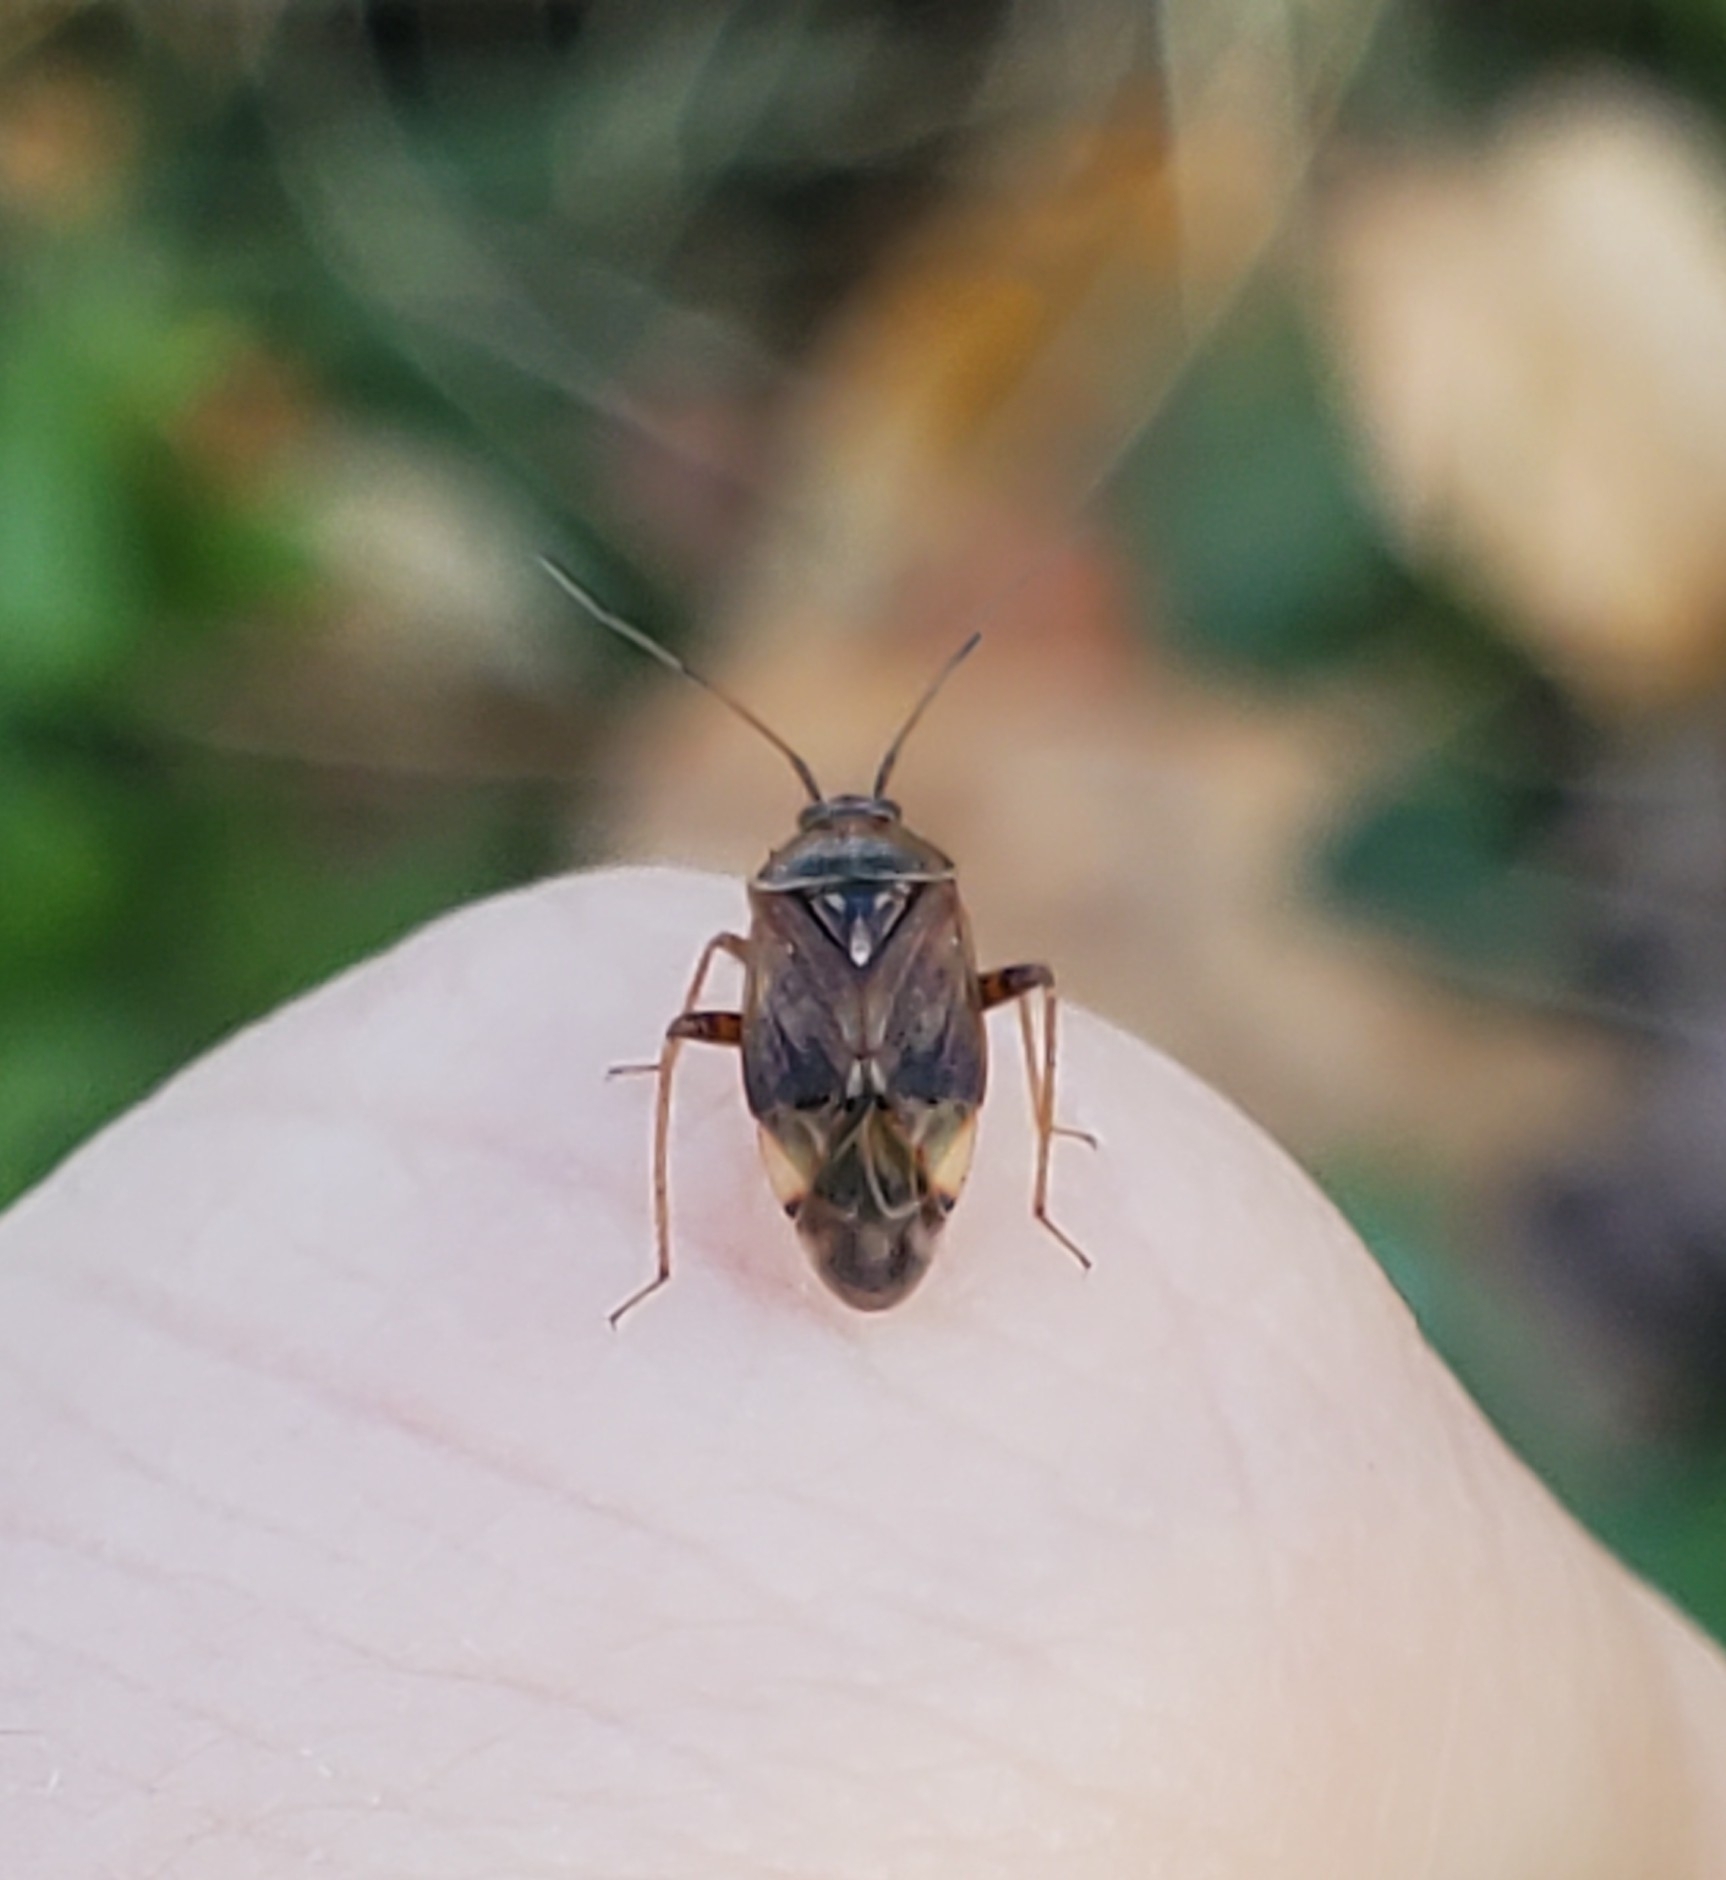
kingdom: Animalia
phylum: Arthropoda
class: Insecta
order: Hemiptera
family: Miridae
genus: Lygus
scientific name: Lygus lineolaris
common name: North american tarnished plant bug
